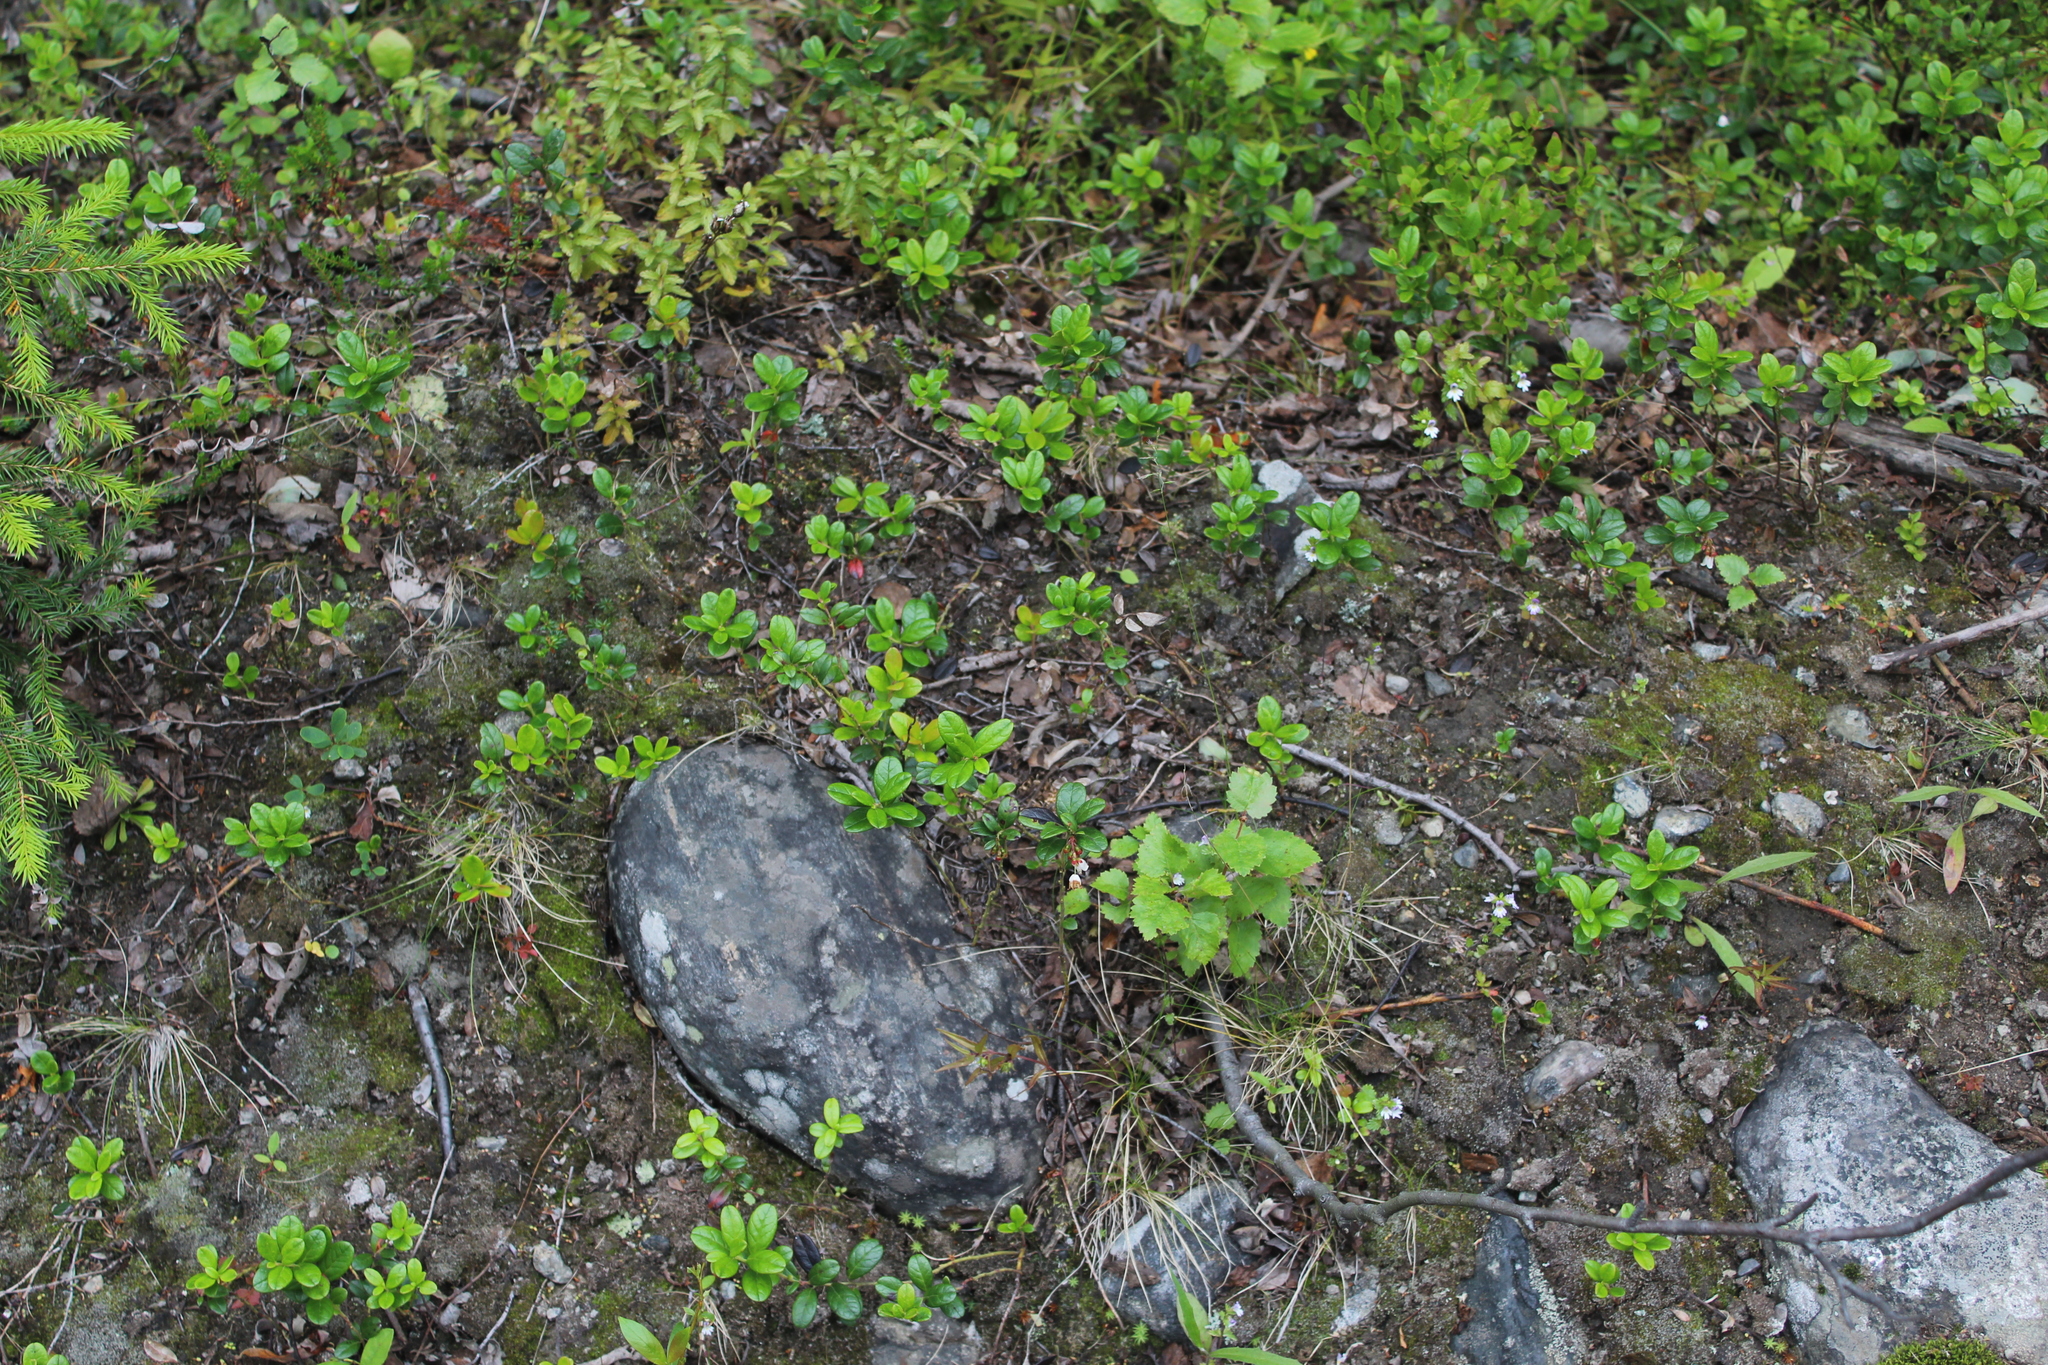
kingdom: Plantae
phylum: Tracheophyta
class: Magnoliopsida
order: Ericales
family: Ericaceae
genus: Vaccinium
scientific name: Vaccinium vitis-idaea
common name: Cowberry
